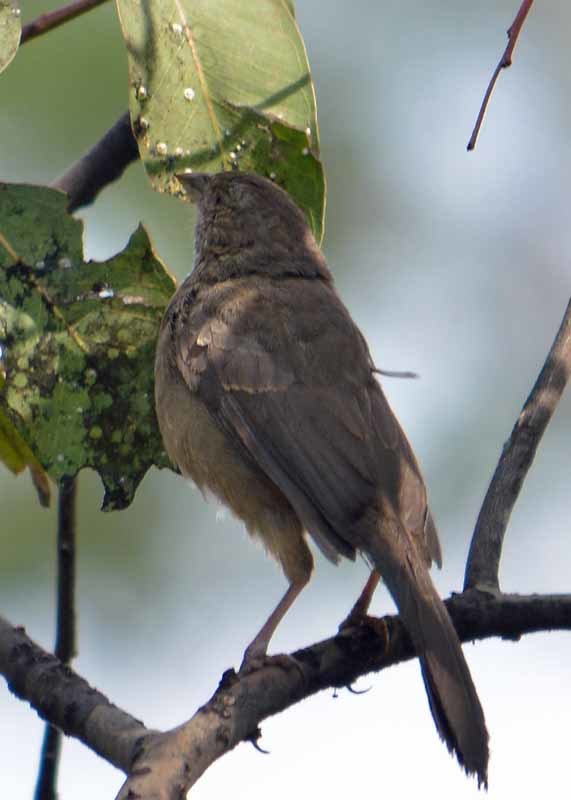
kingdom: Animalia
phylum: Chordata
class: Aves
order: Passeriformes
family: Passerellidae
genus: Melozone
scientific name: Melozone fusca
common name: Canyon towhee
